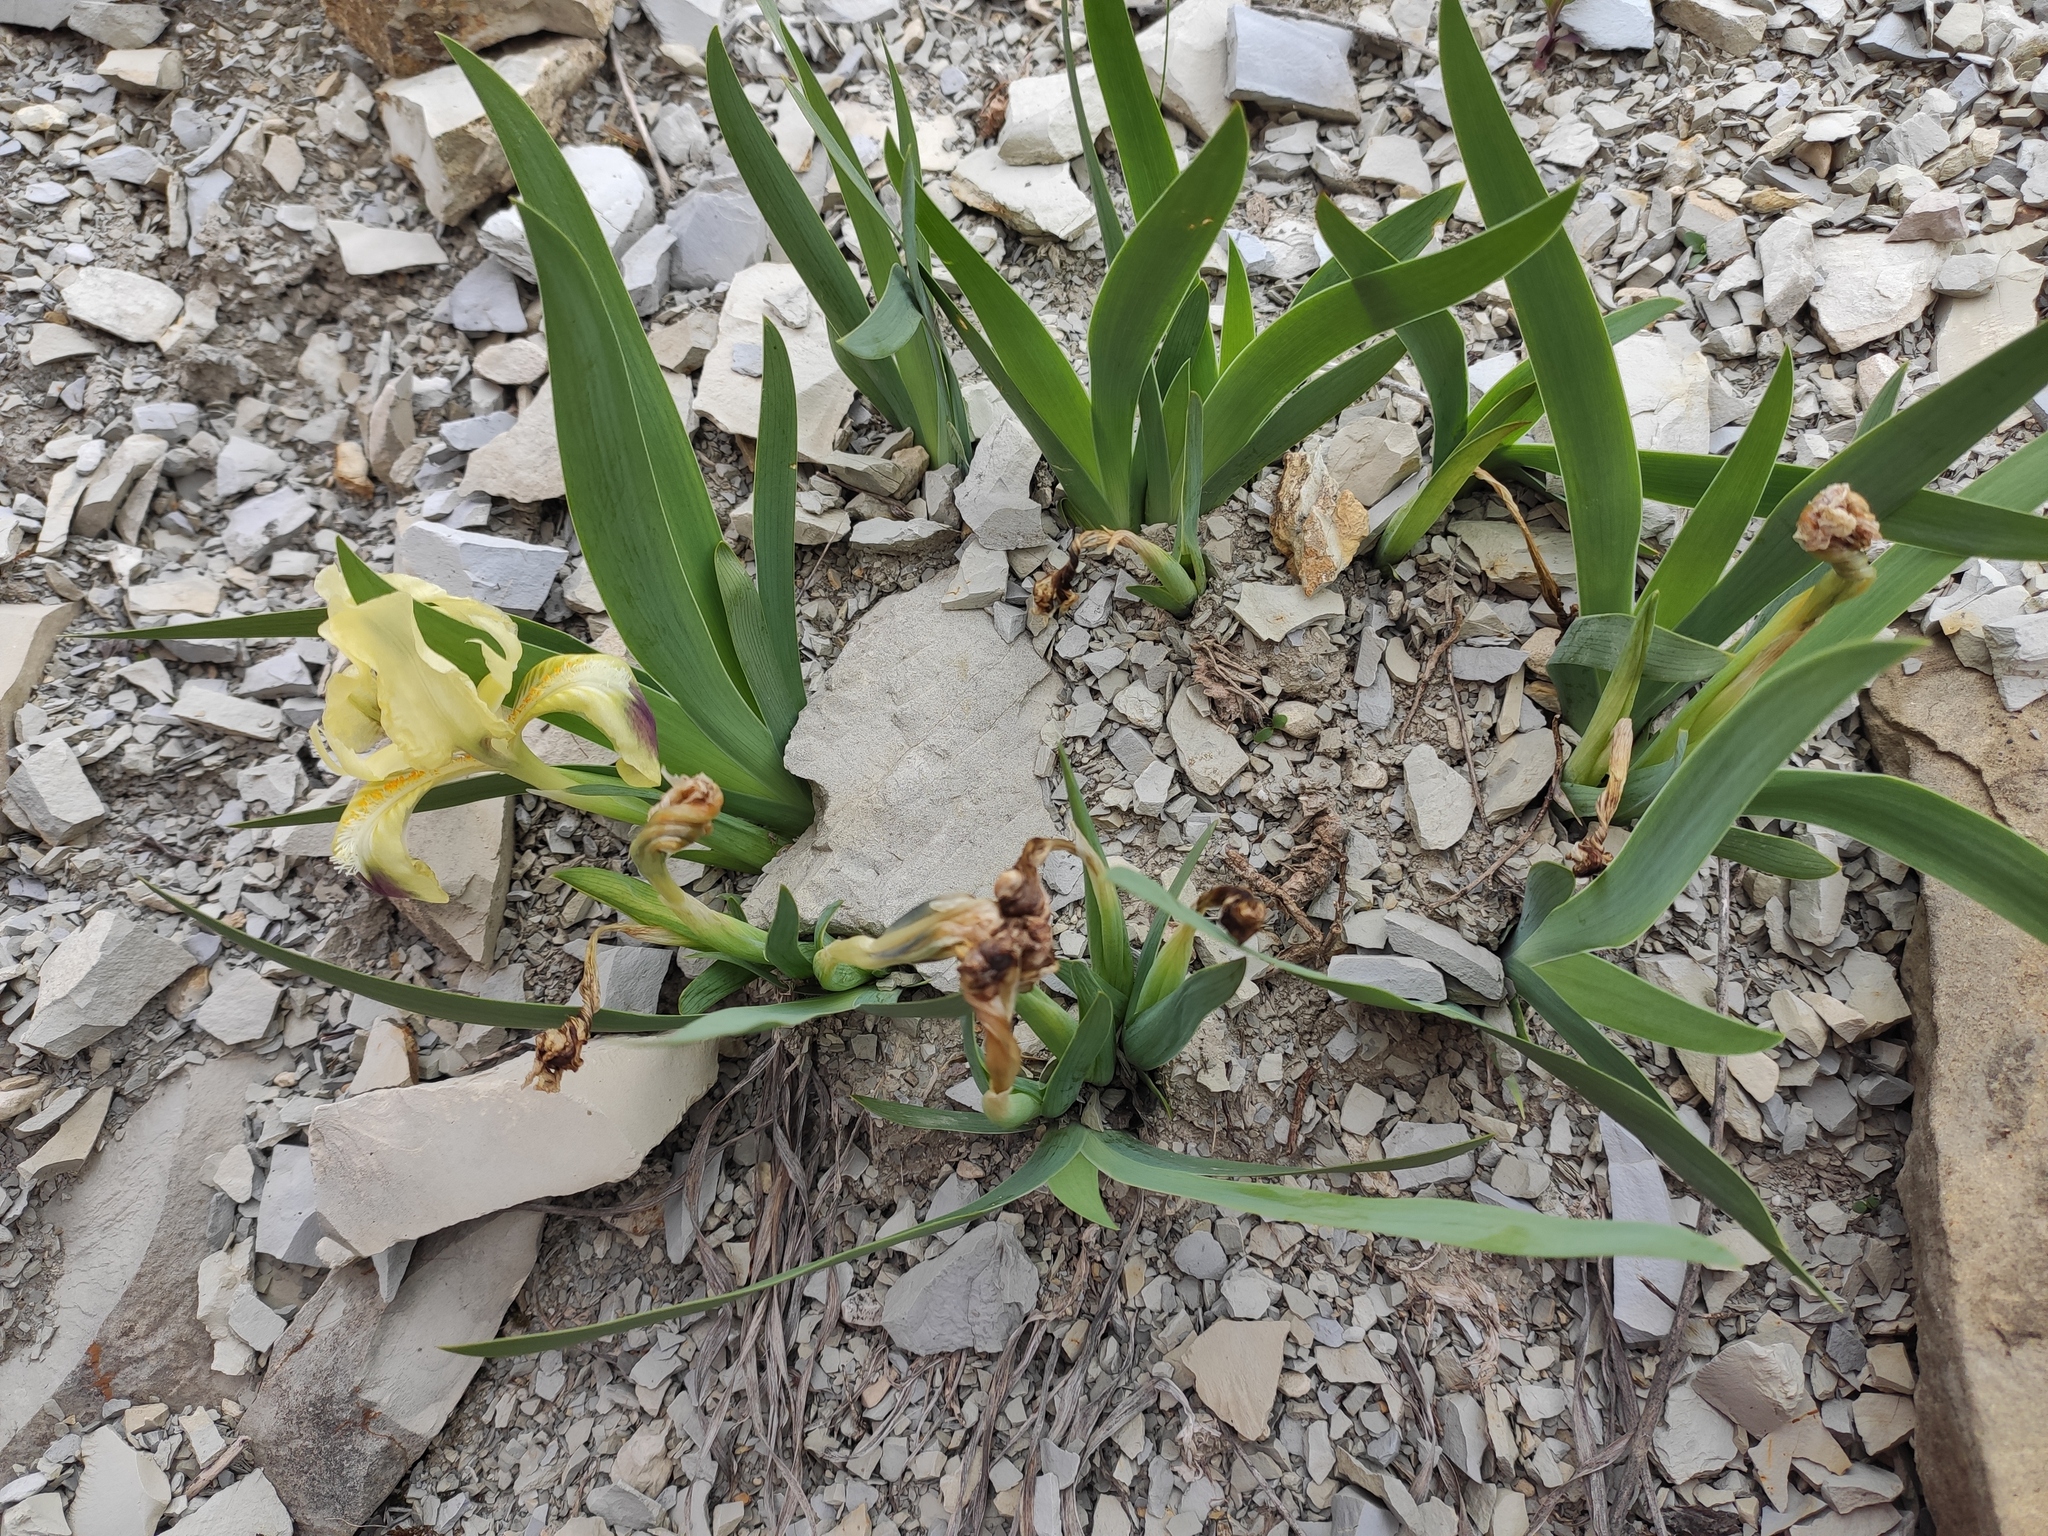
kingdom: Plantae
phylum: Tracheophyta
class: Liliopsida
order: Asparagales
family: Iridaceae
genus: Iris
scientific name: Iris pumila
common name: Dwarf iris
